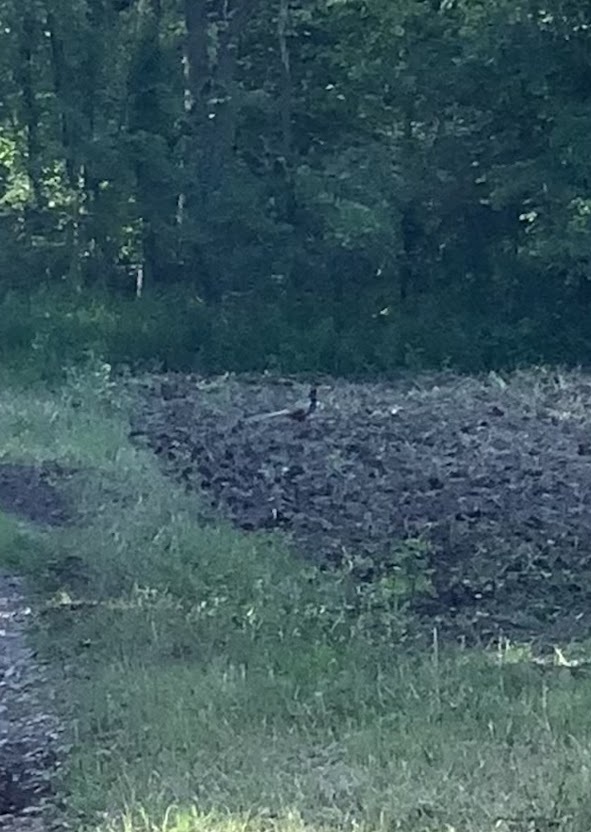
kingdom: Animalia
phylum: Chordata
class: Aves
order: Galliformes
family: Phasianidae
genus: Phasianus
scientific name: Phasianus colchicus
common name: Common pheasant
